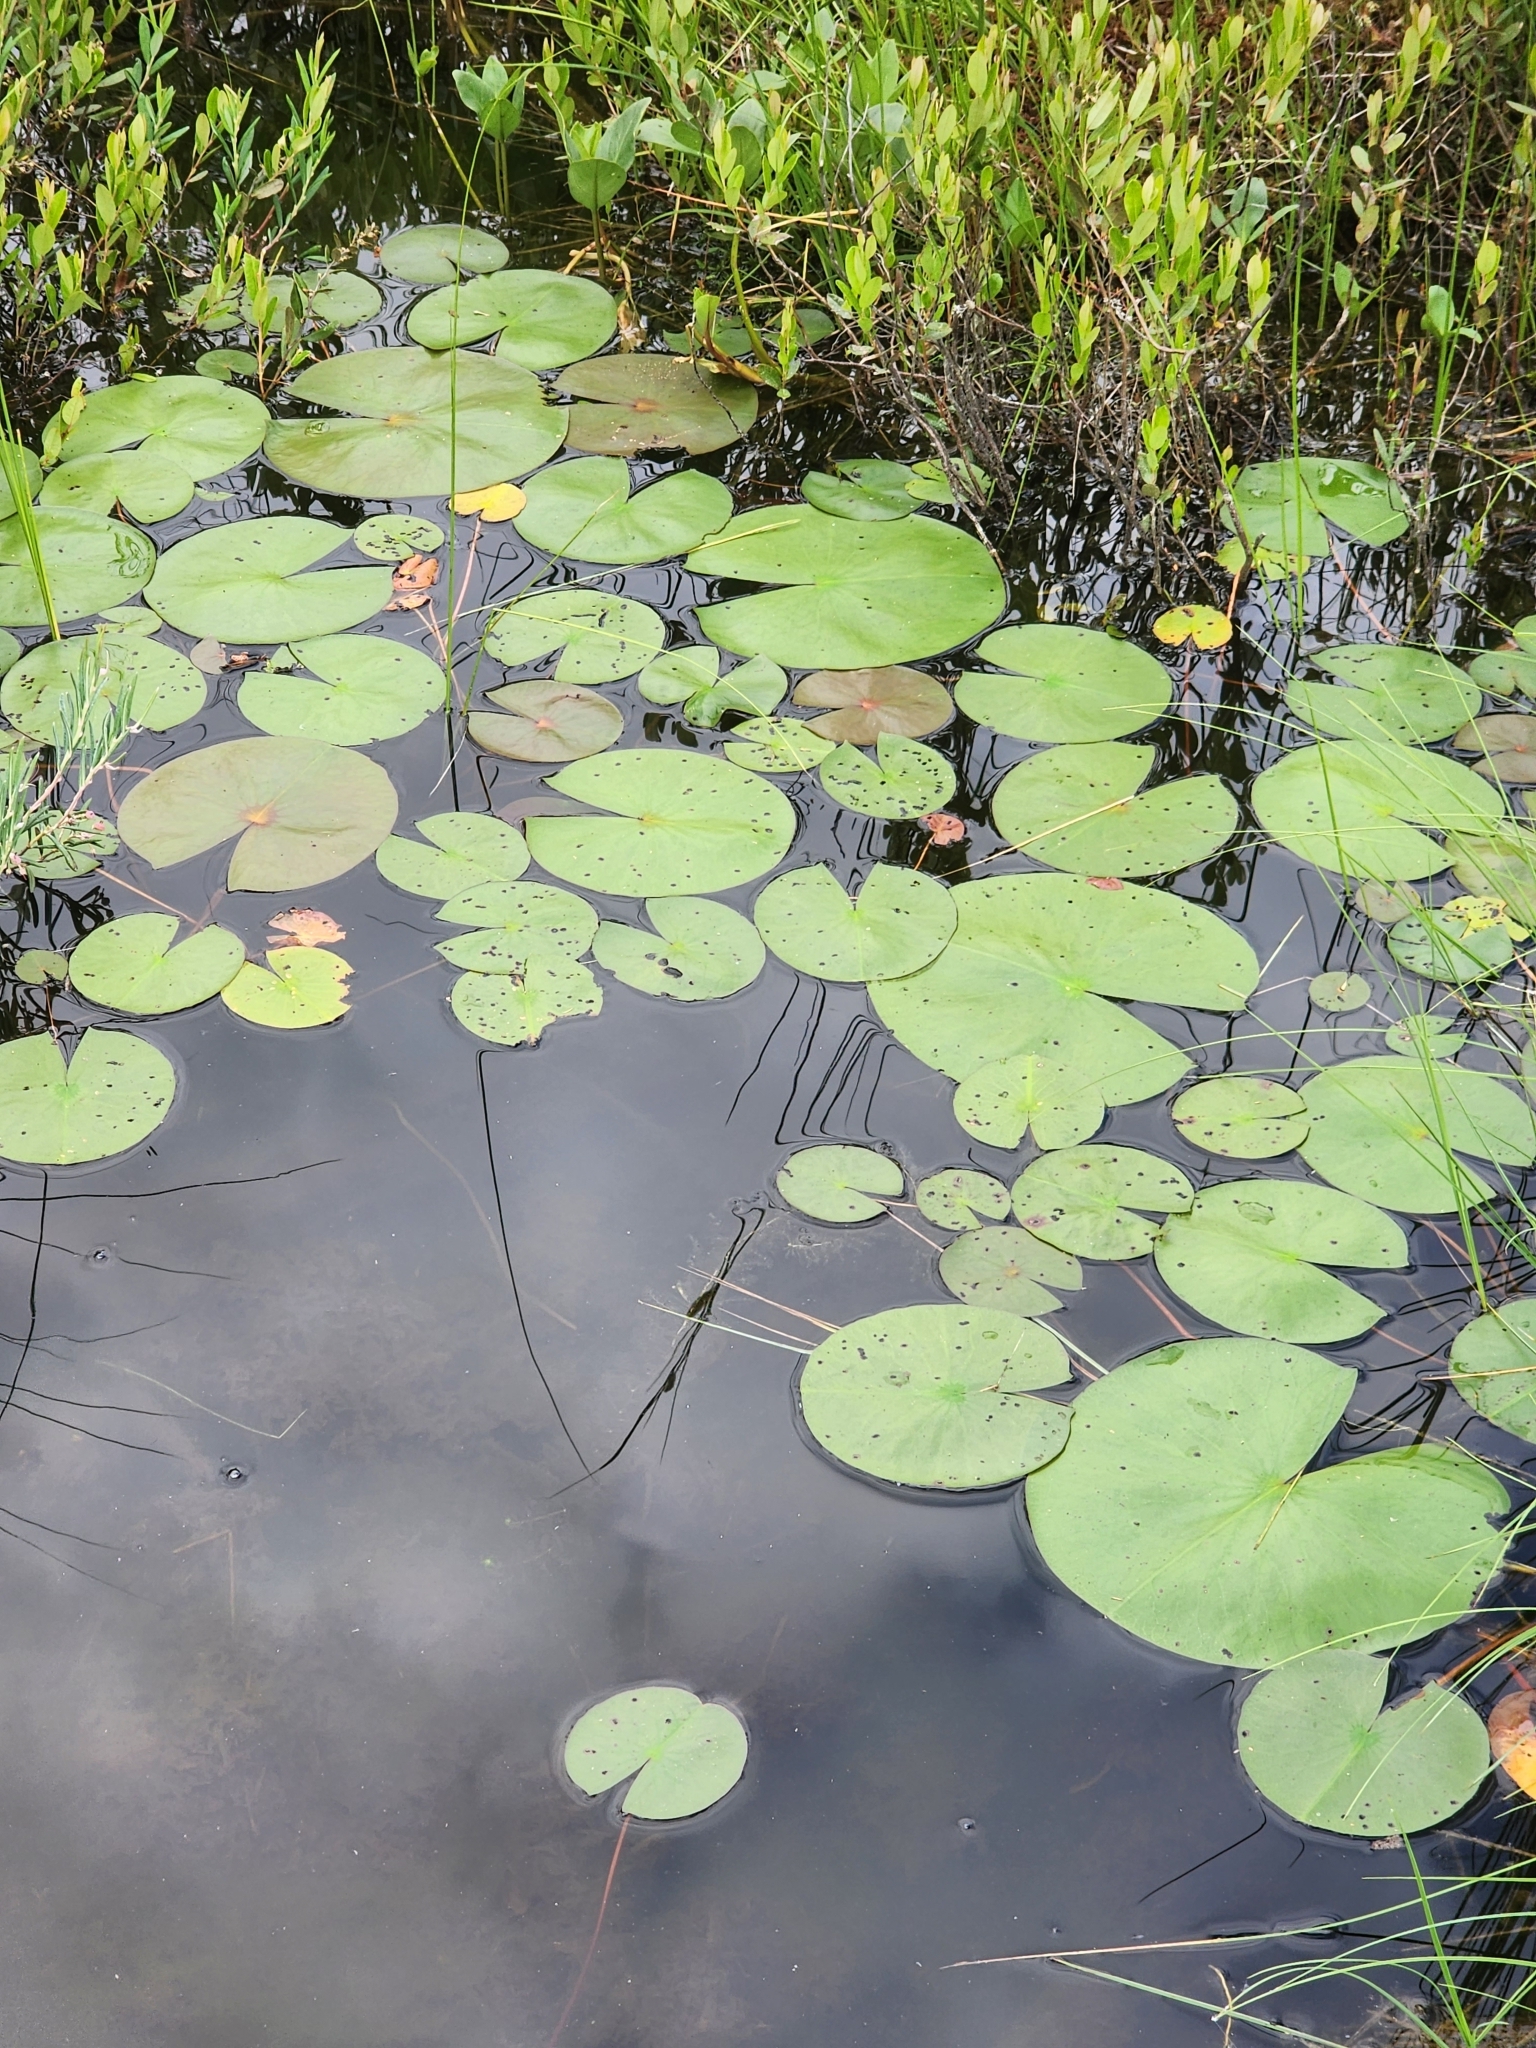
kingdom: Plantae
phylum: Tracheophyta
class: Magnoliopsida
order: Nymphaeales
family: Nymphaeaceae
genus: Nymphaea
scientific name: Nymphaea odorata
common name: Fragrant water-lily
